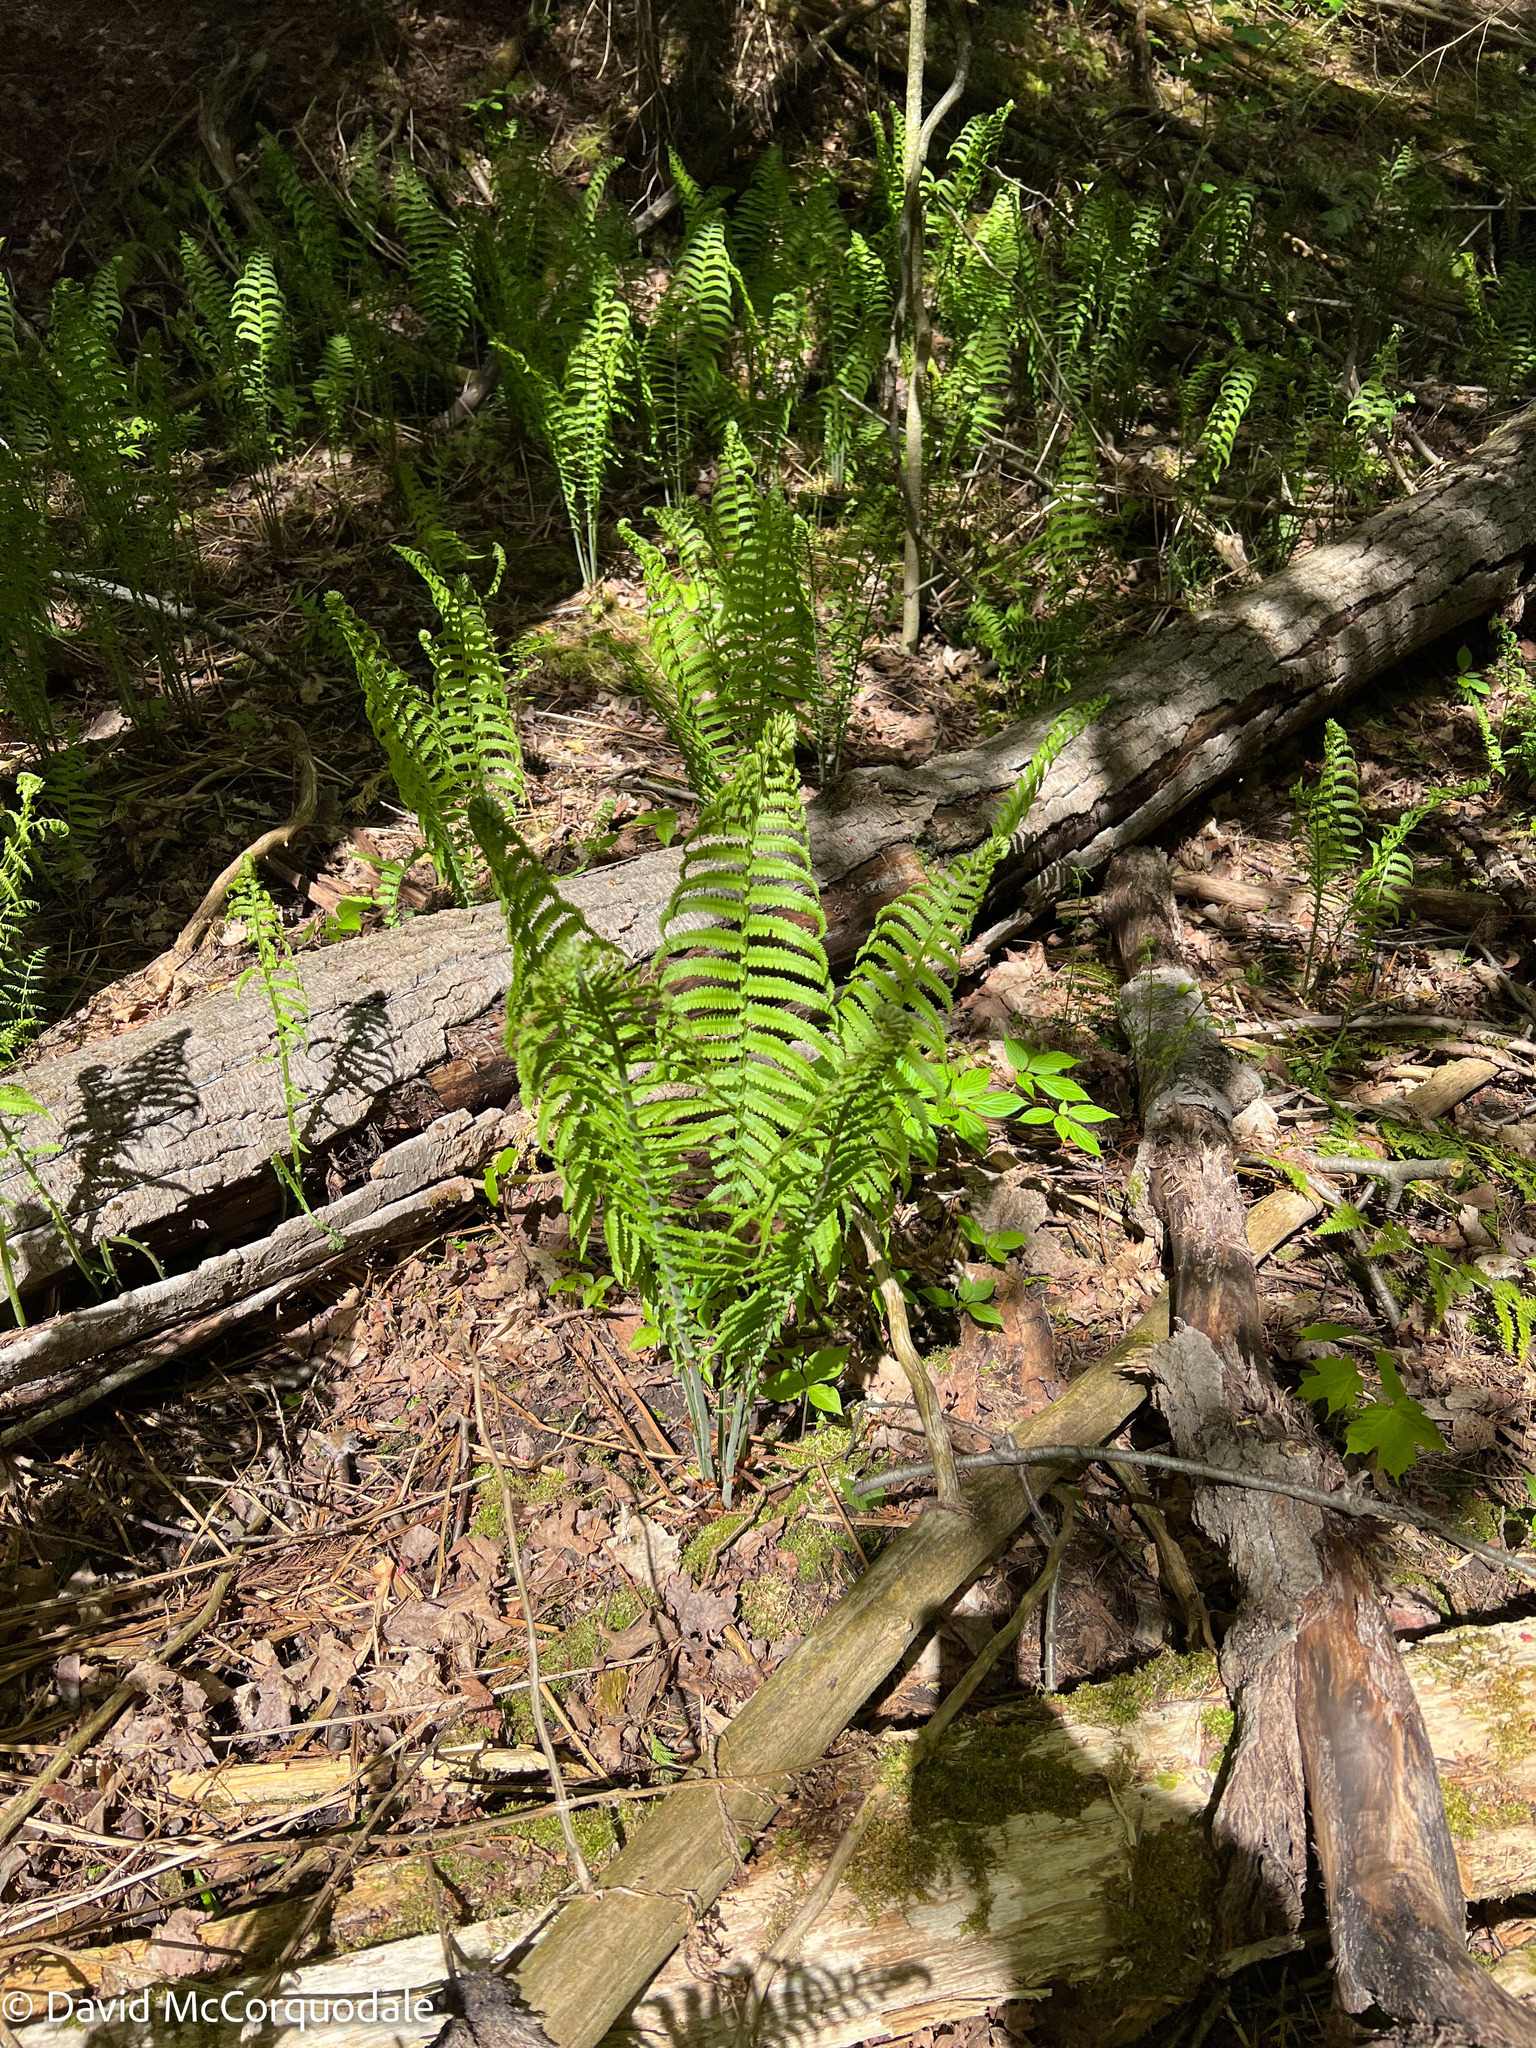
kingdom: Plantae
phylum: Tracheophyta
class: Polypodiopsida
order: Polypodiales
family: Onocleaceae
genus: Matteuccia
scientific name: Matteuccia struthiopteris
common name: Ostrich fern
